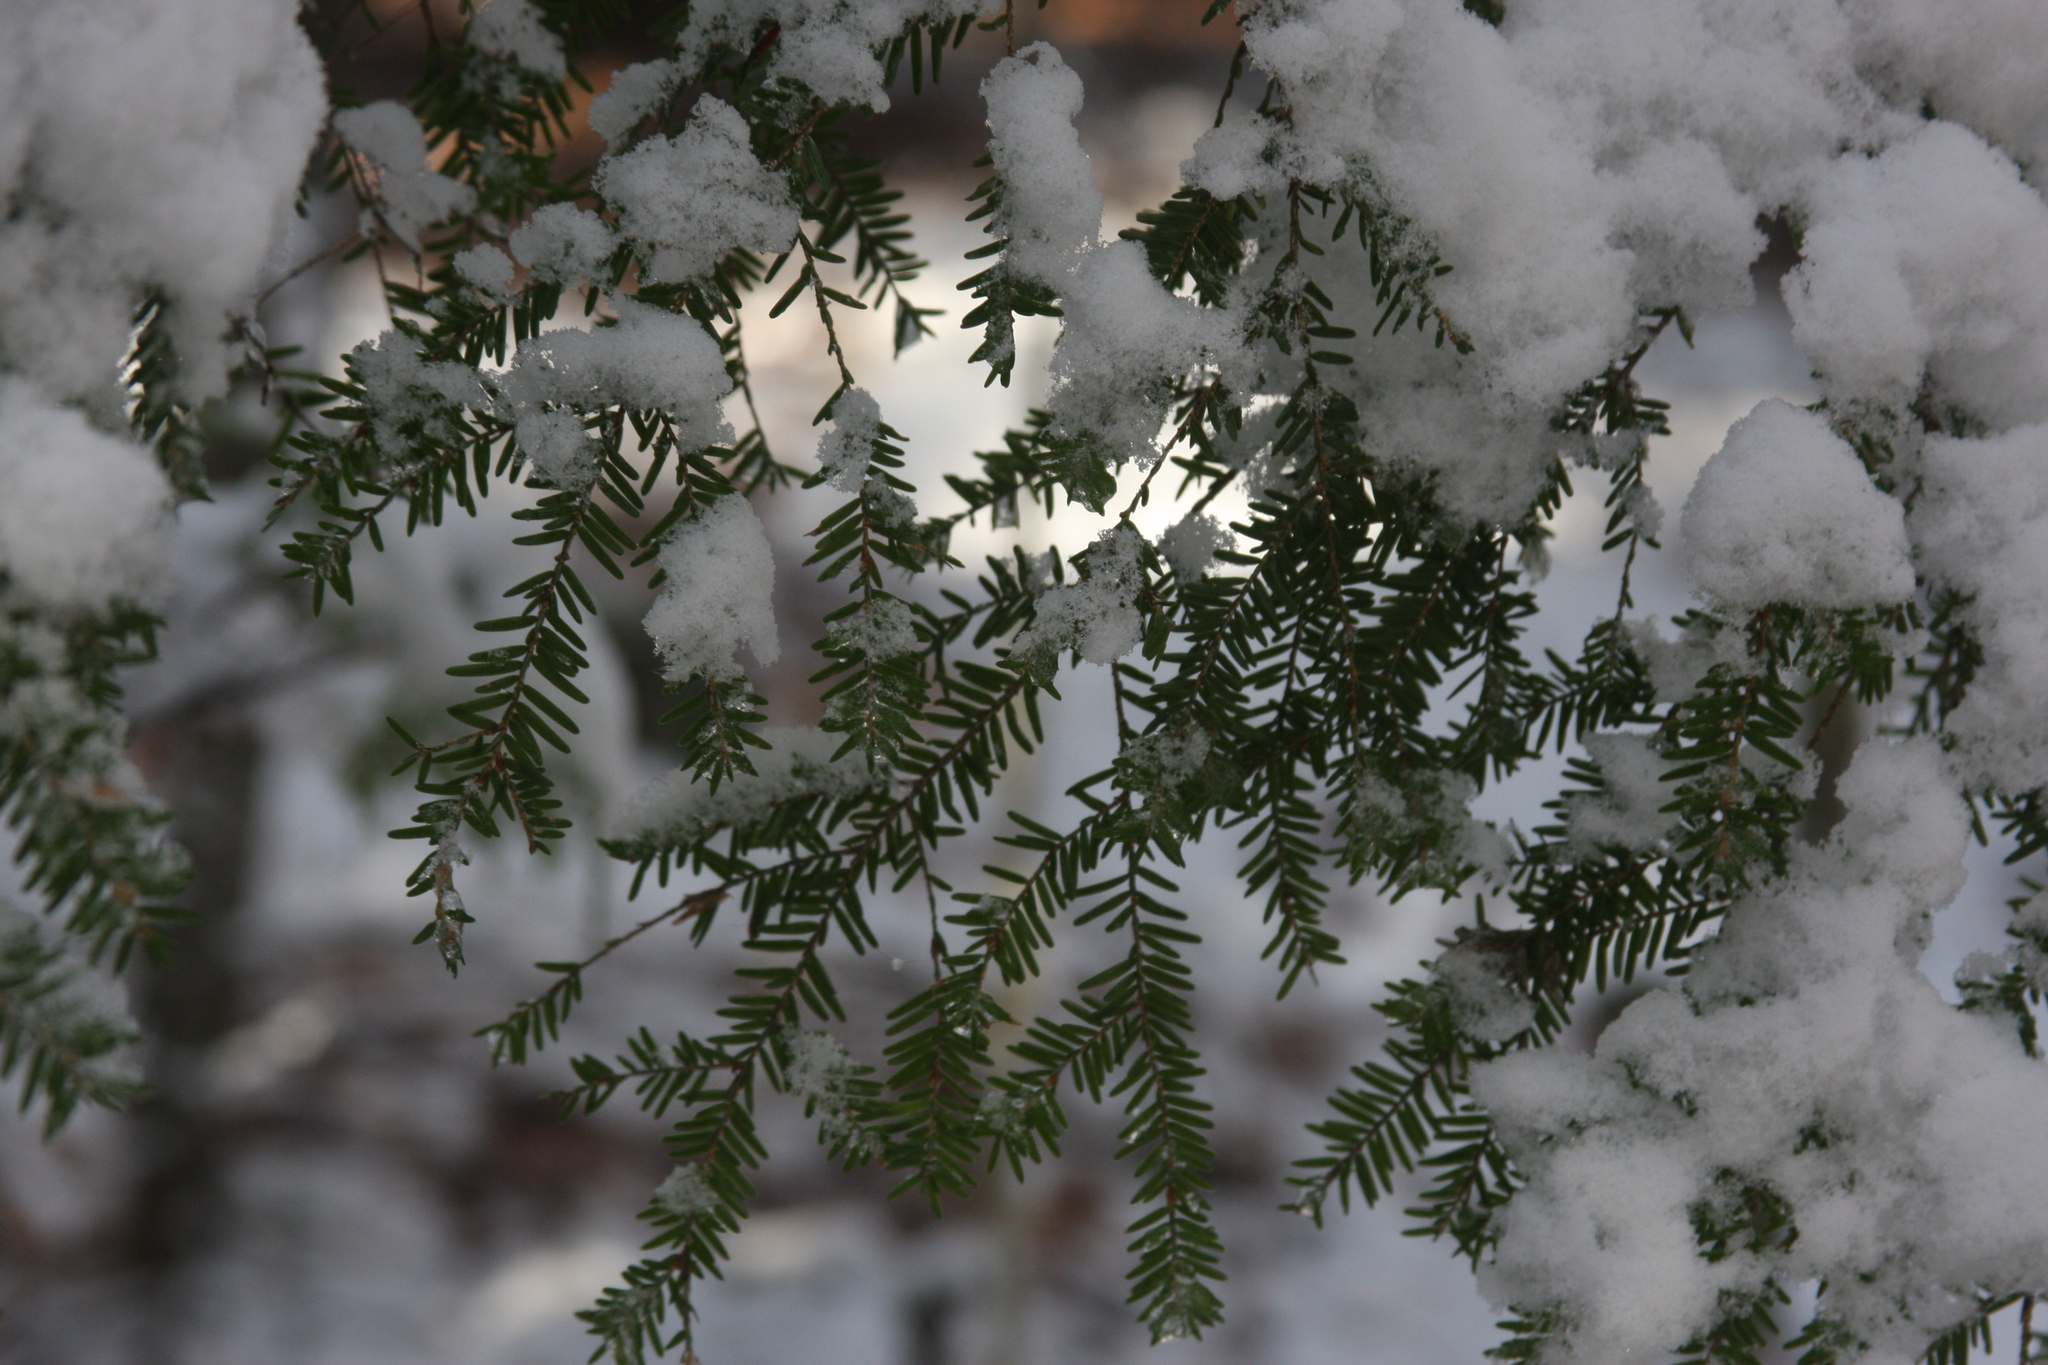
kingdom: Plantae
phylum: Tracheophyta
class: Pinopsida
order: Pinales
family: Pinaceae
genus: Tsuga
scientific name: Tsuga canadensis
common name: Eastern hemlock
